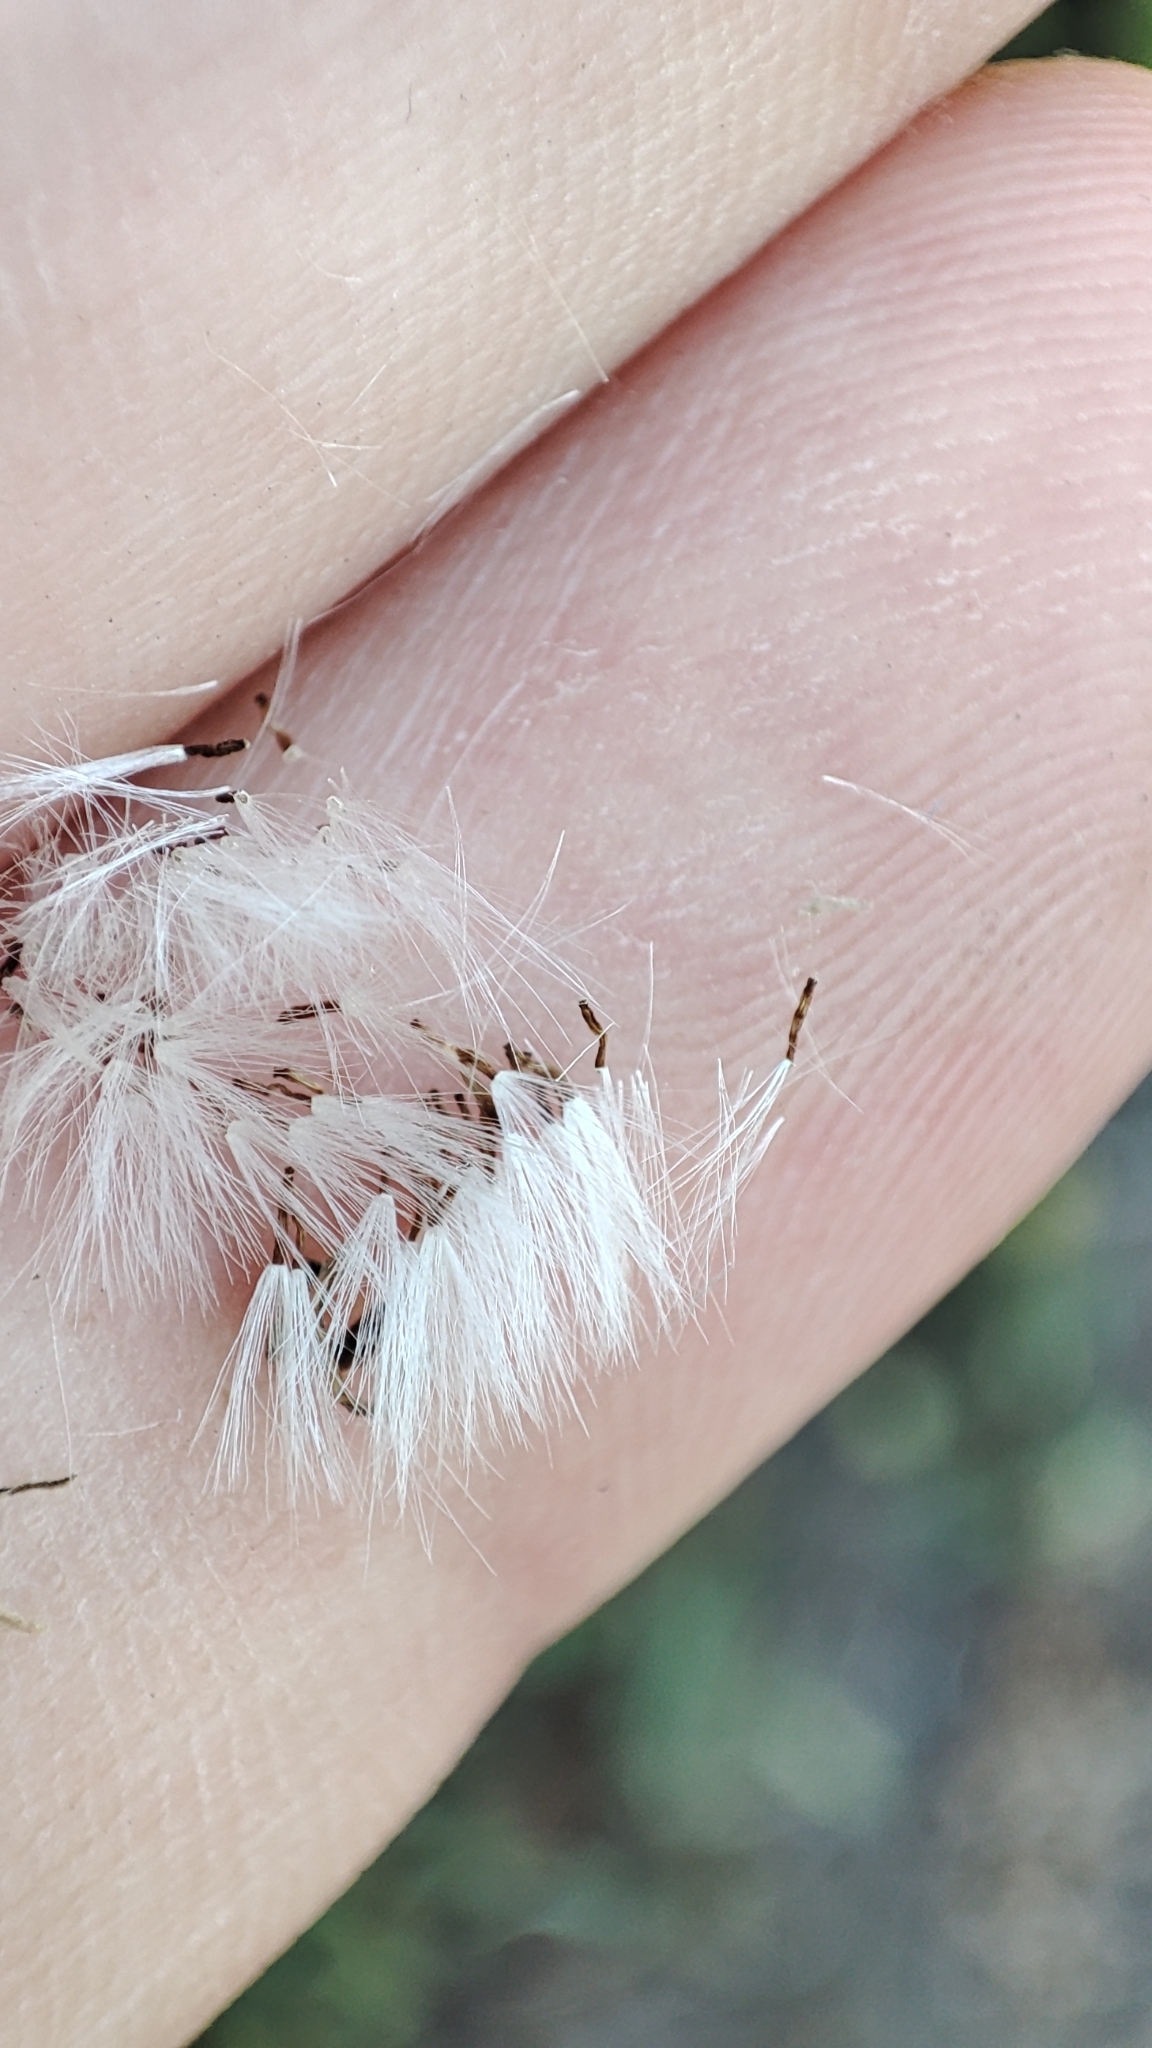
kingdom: Plantae
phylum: Tracheophyta
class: Magnoliopsida
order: Asterales
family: Asteraceae
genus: Crepis
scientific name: Crepis tectorum
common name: Narrow-leaved hawk's-beard
